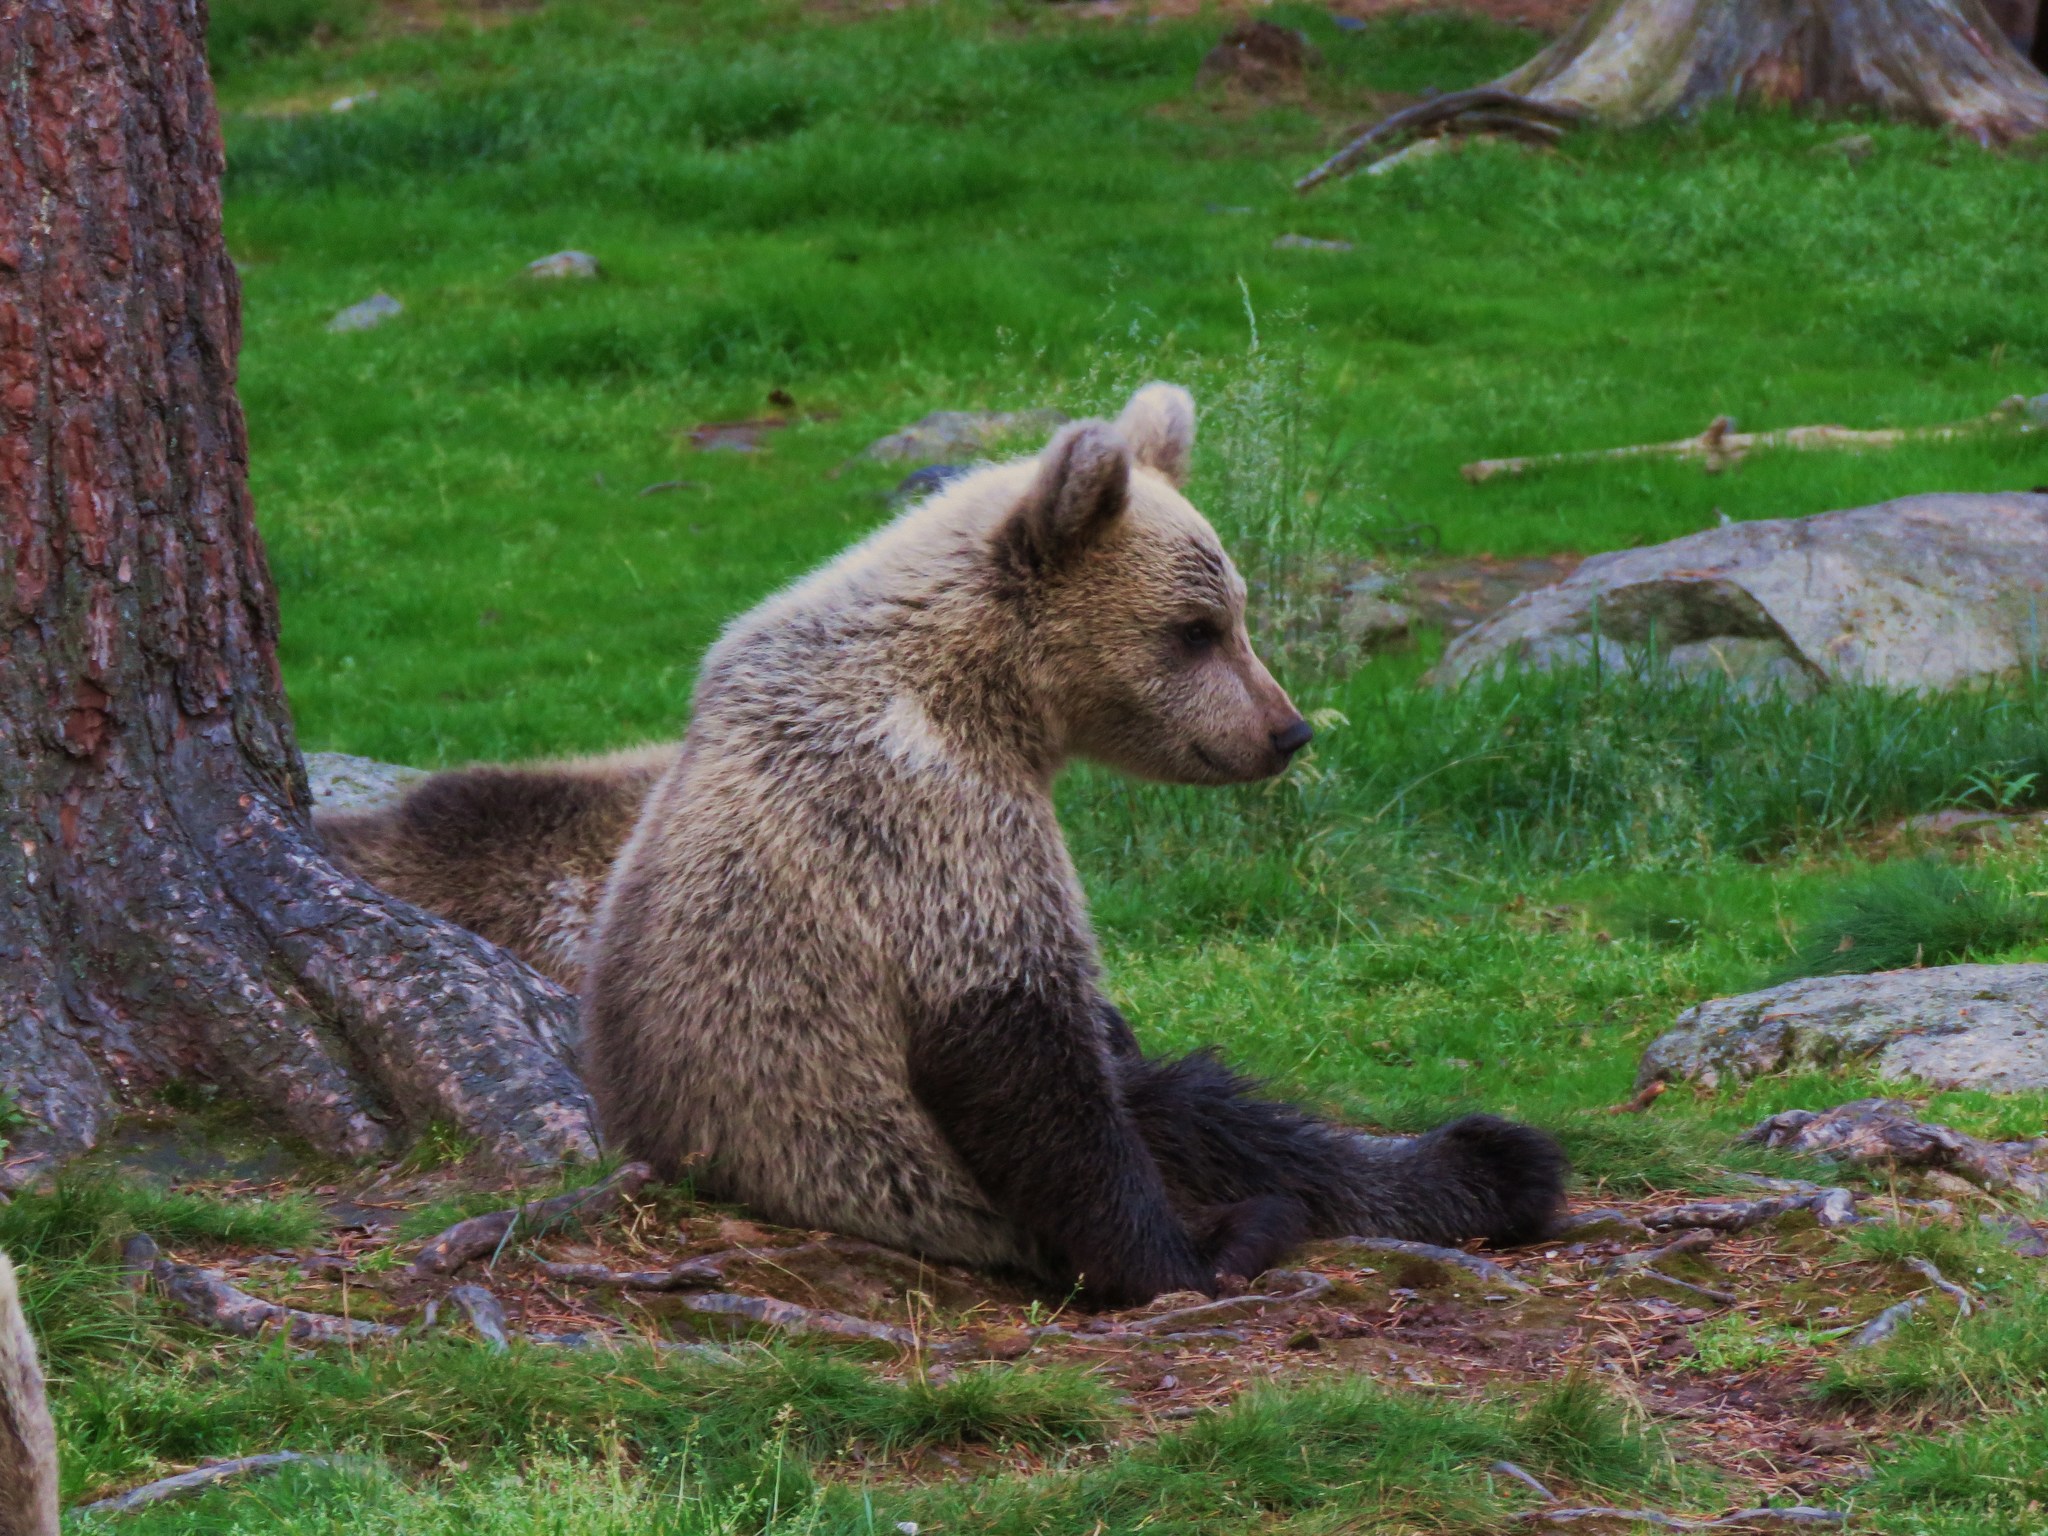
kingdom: Animalia
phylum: Chordata
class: Mammalia
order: Carnivora
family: Ursidae
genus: Ursus
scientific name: Ursus arctos
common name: Brown bear
